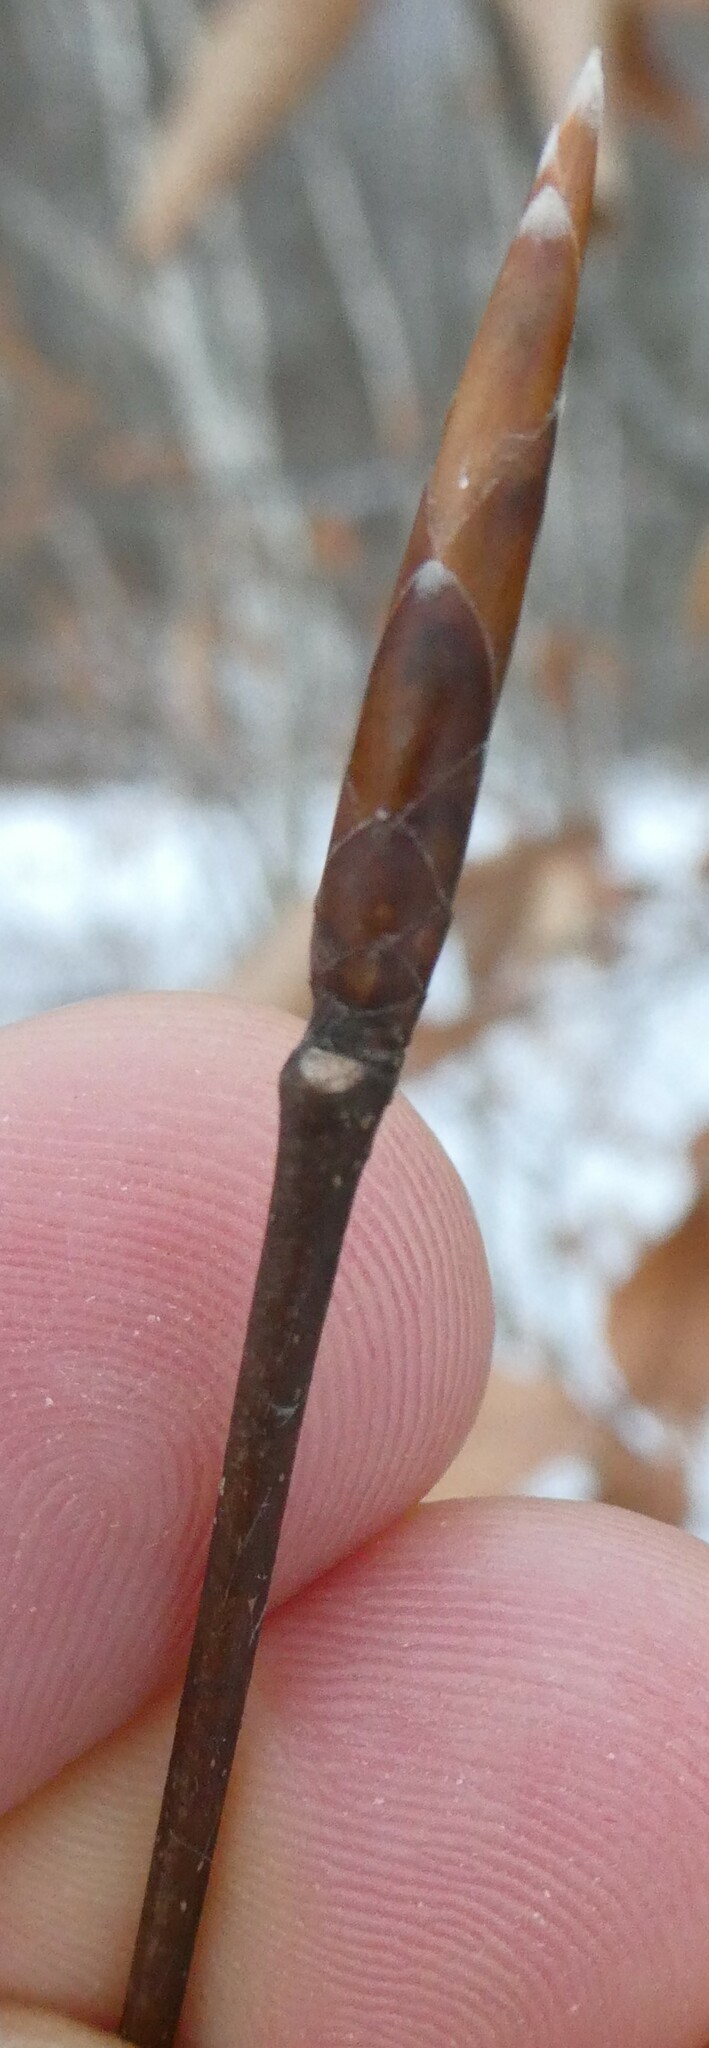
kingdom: Plantae
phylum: Tracheophyta
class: Magnoliopsida
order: Fagales
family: Fagaceae
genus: Fagus
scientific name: Fagus grandifolia
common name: American beech
